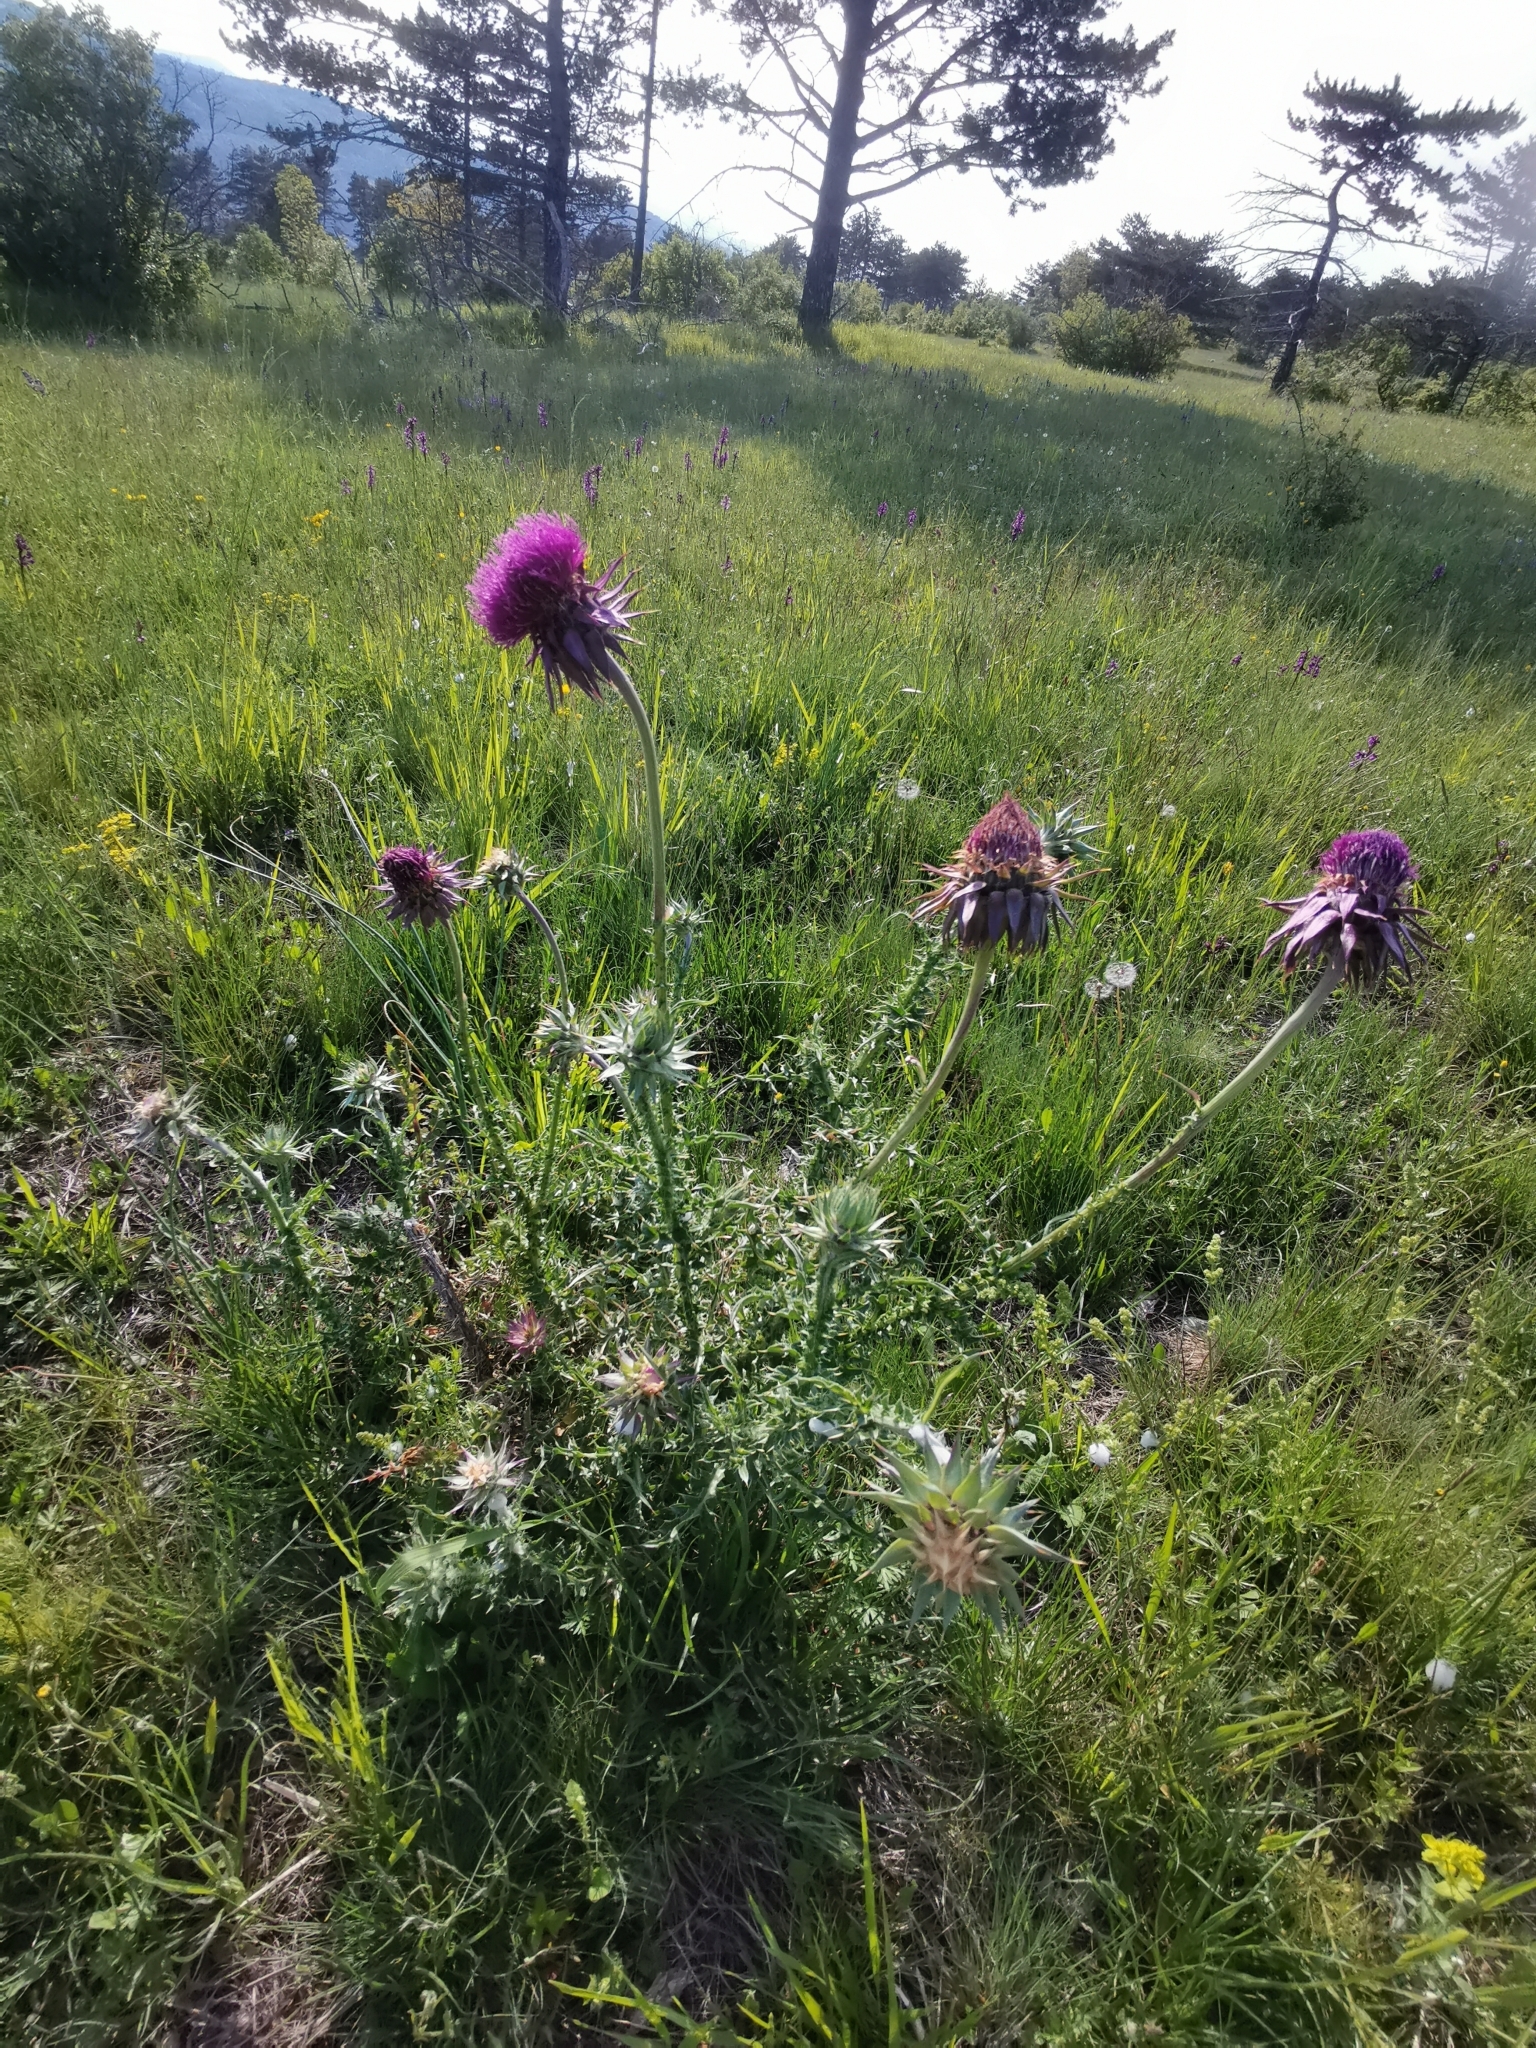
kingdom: Plantae
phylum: Tracheophyta
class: Magnoliopsida
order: Asterales
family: Asteraceae
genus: Carduus
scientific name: Carduus nutans
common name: Musk thistle
